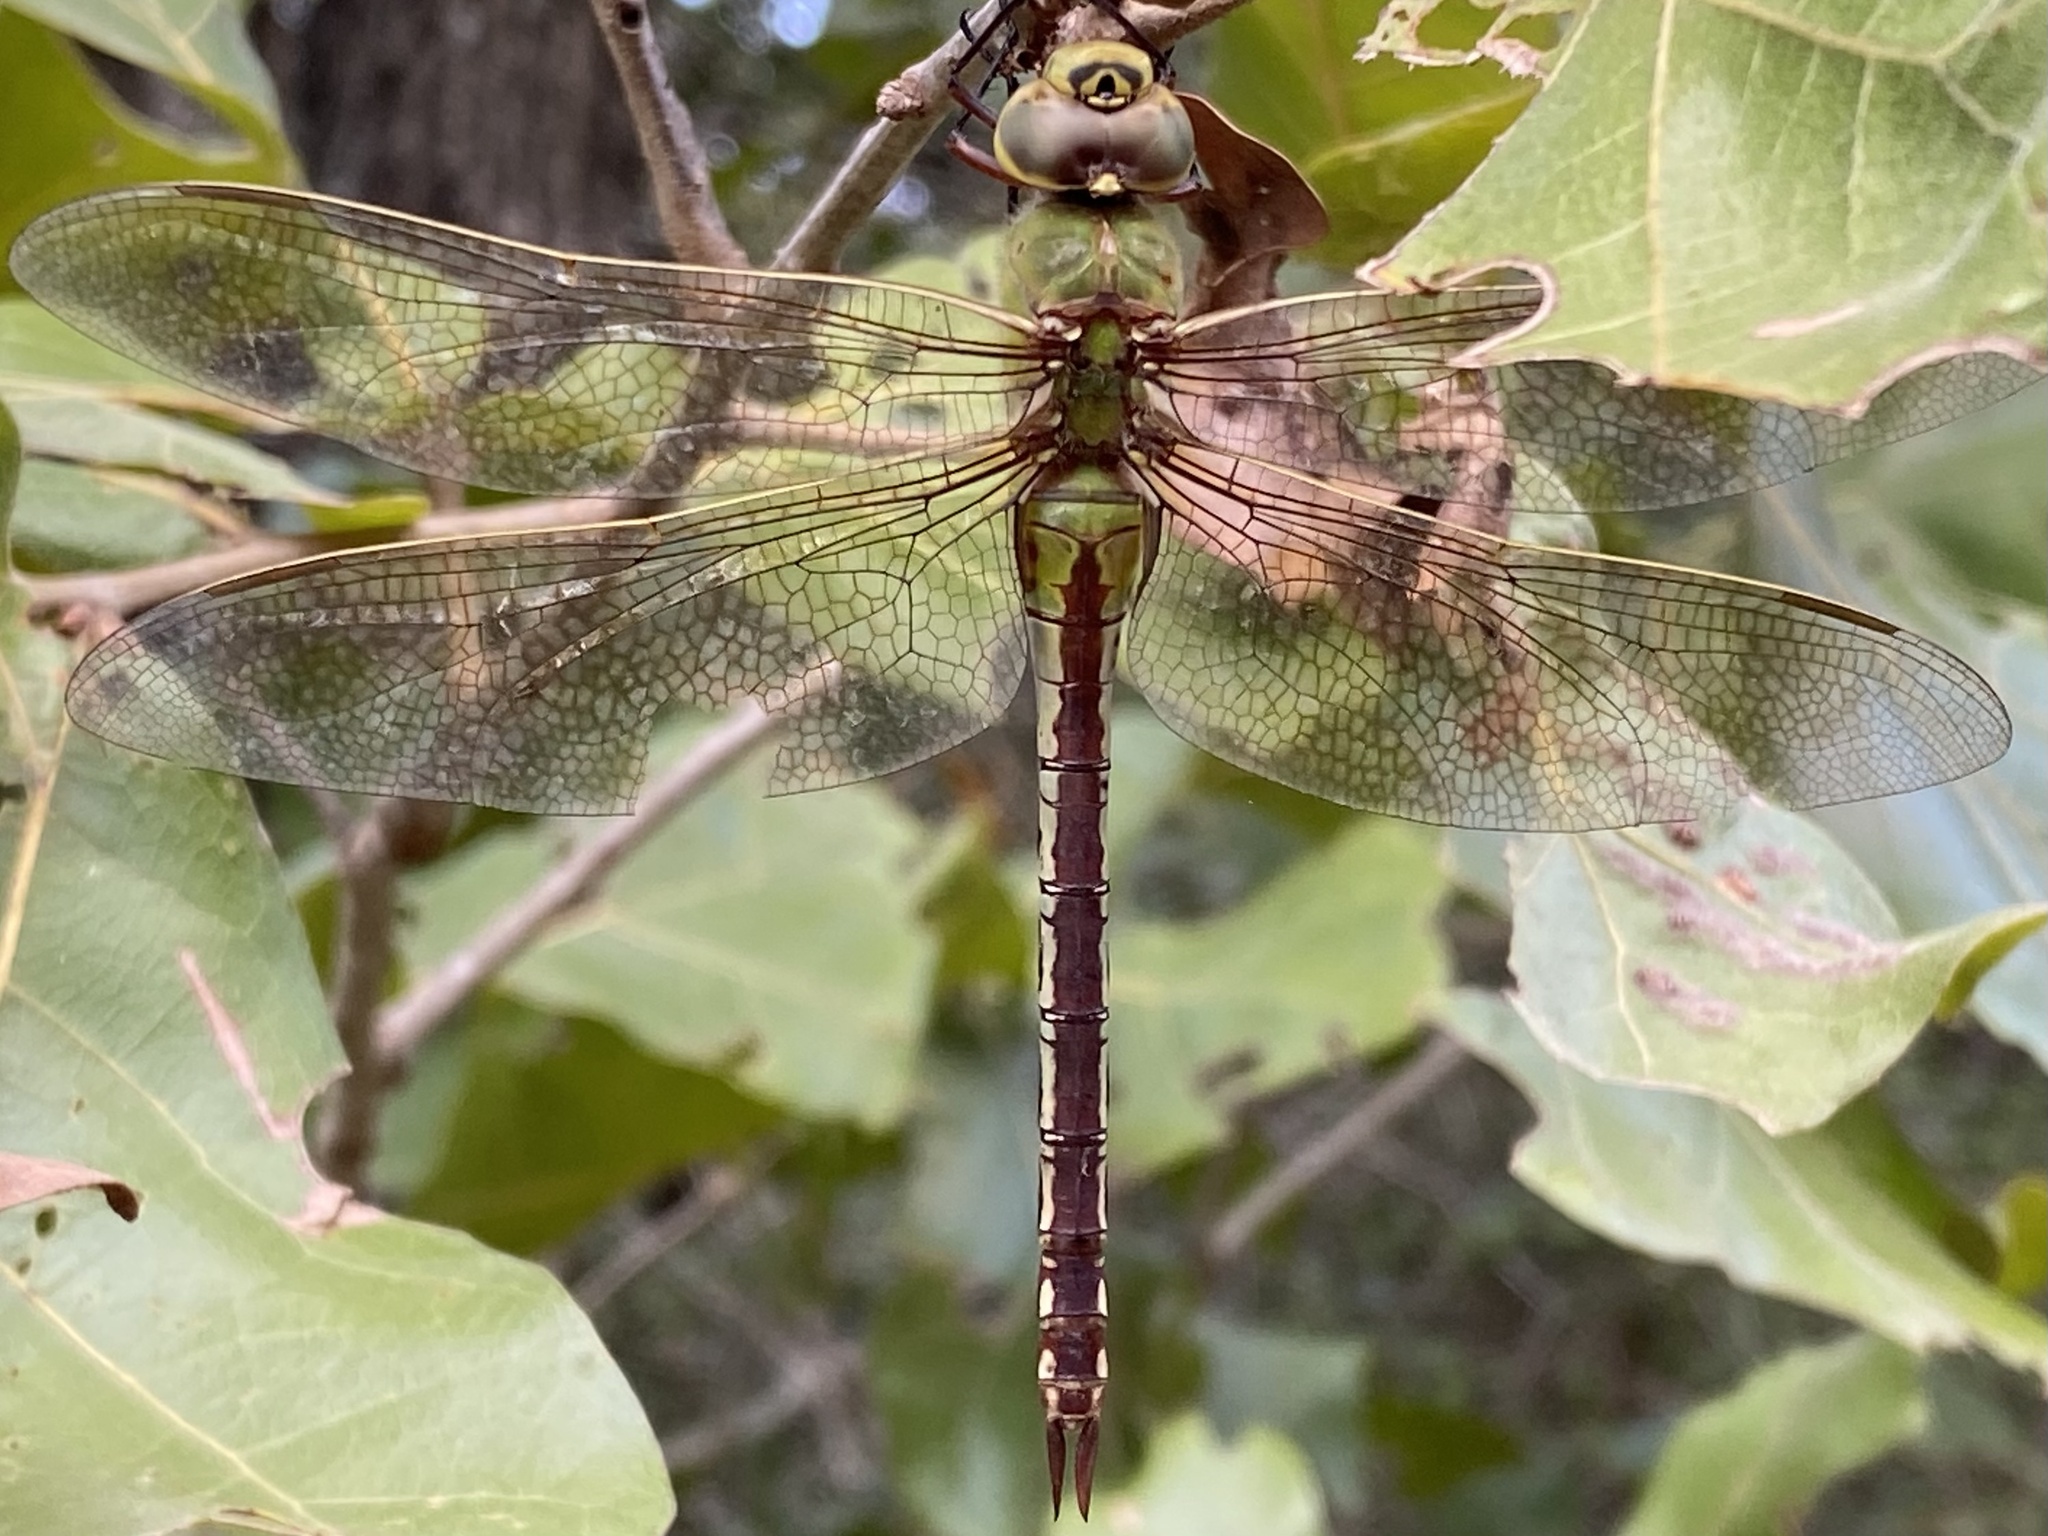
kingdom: Animalia
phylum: Arthropoda
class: Insecta
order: Odonata
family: Aeshnidae
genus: Anax
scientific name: Anax junius
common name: Common green darner
